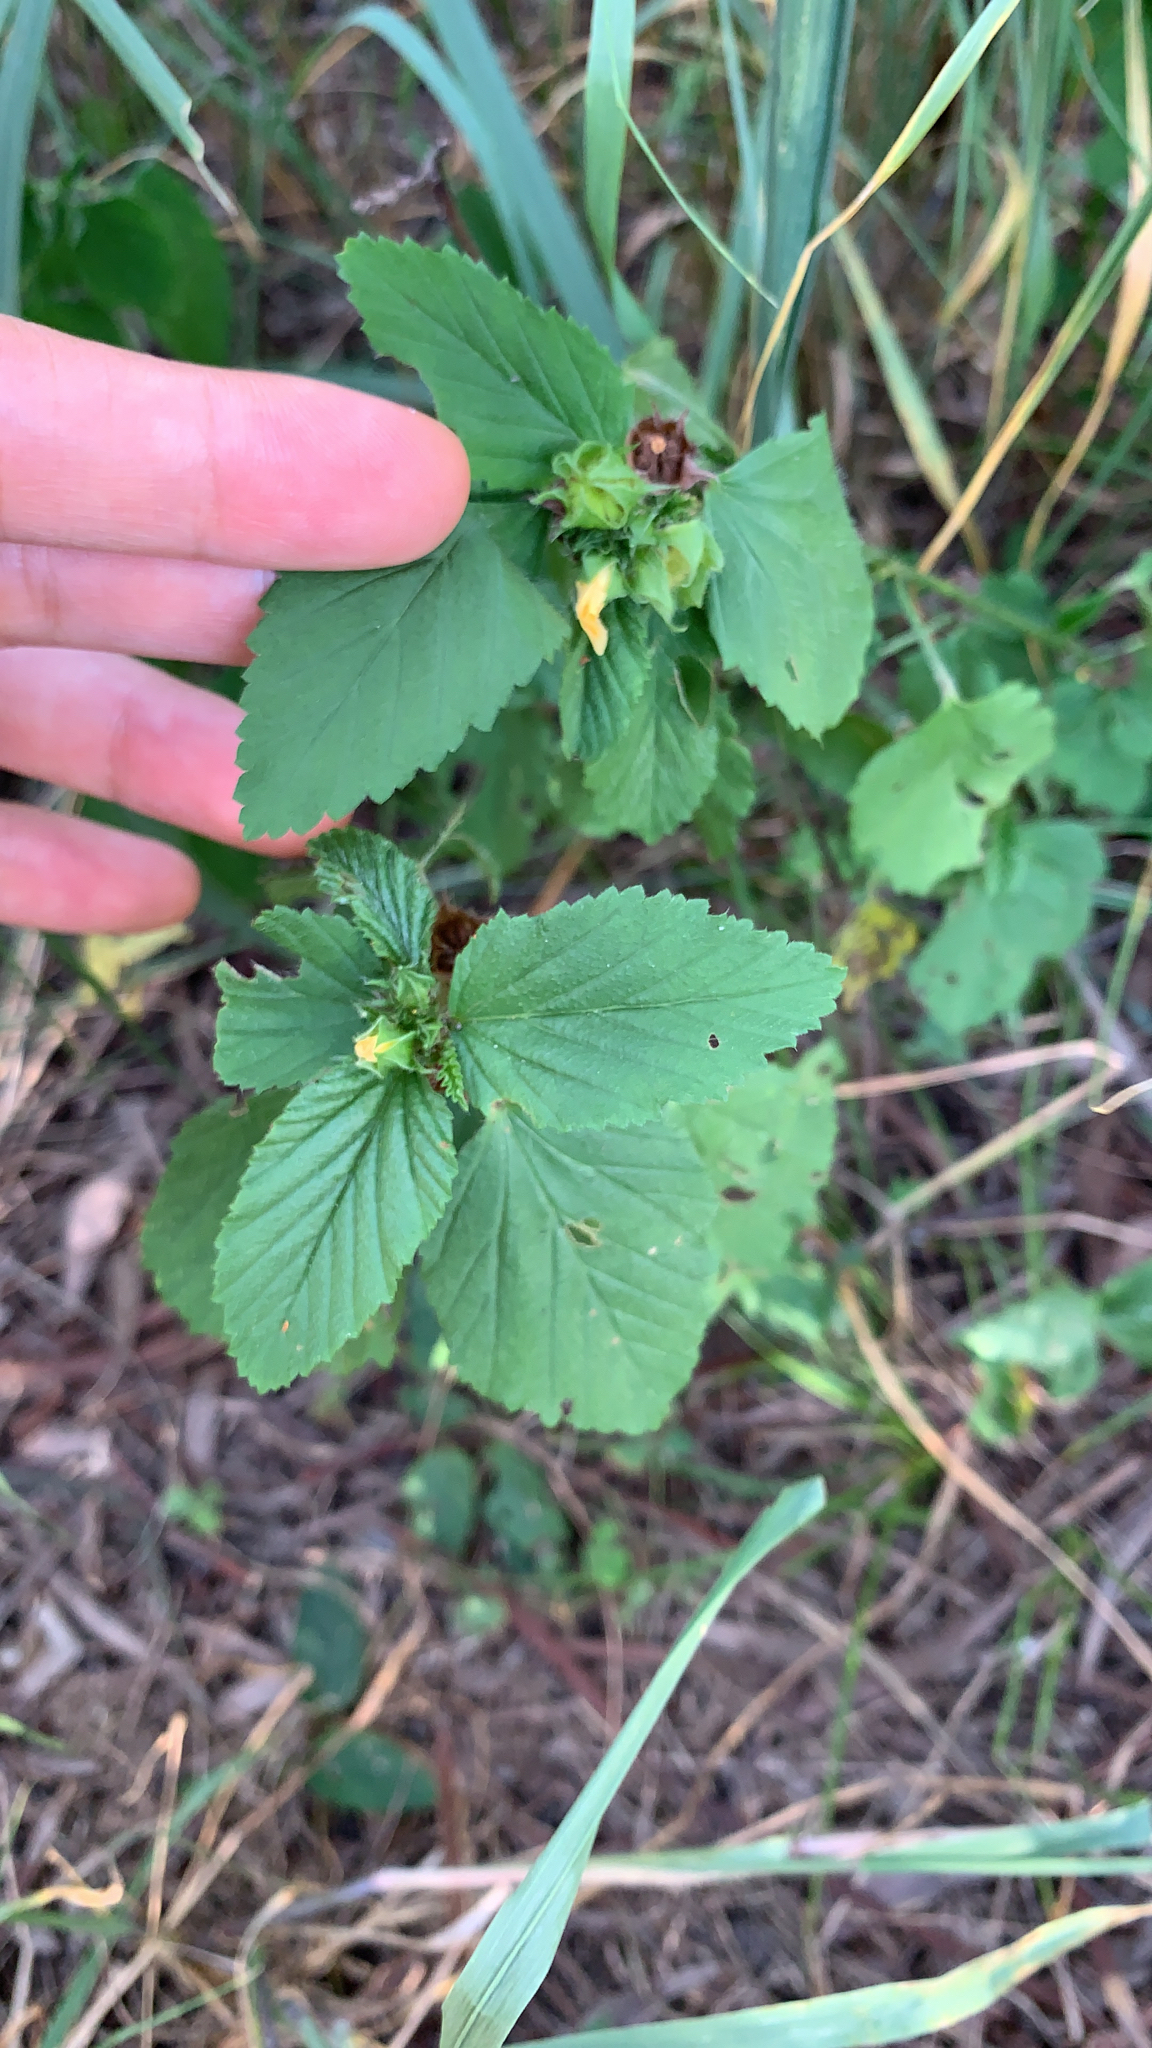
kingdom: Plantae
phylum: Tracheophyta
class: Magnoliopsida
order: Malvales
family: Malvaceae
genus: Malvastrum
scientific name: Malvastrum coromandelianum
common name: Threelobe false mallow
